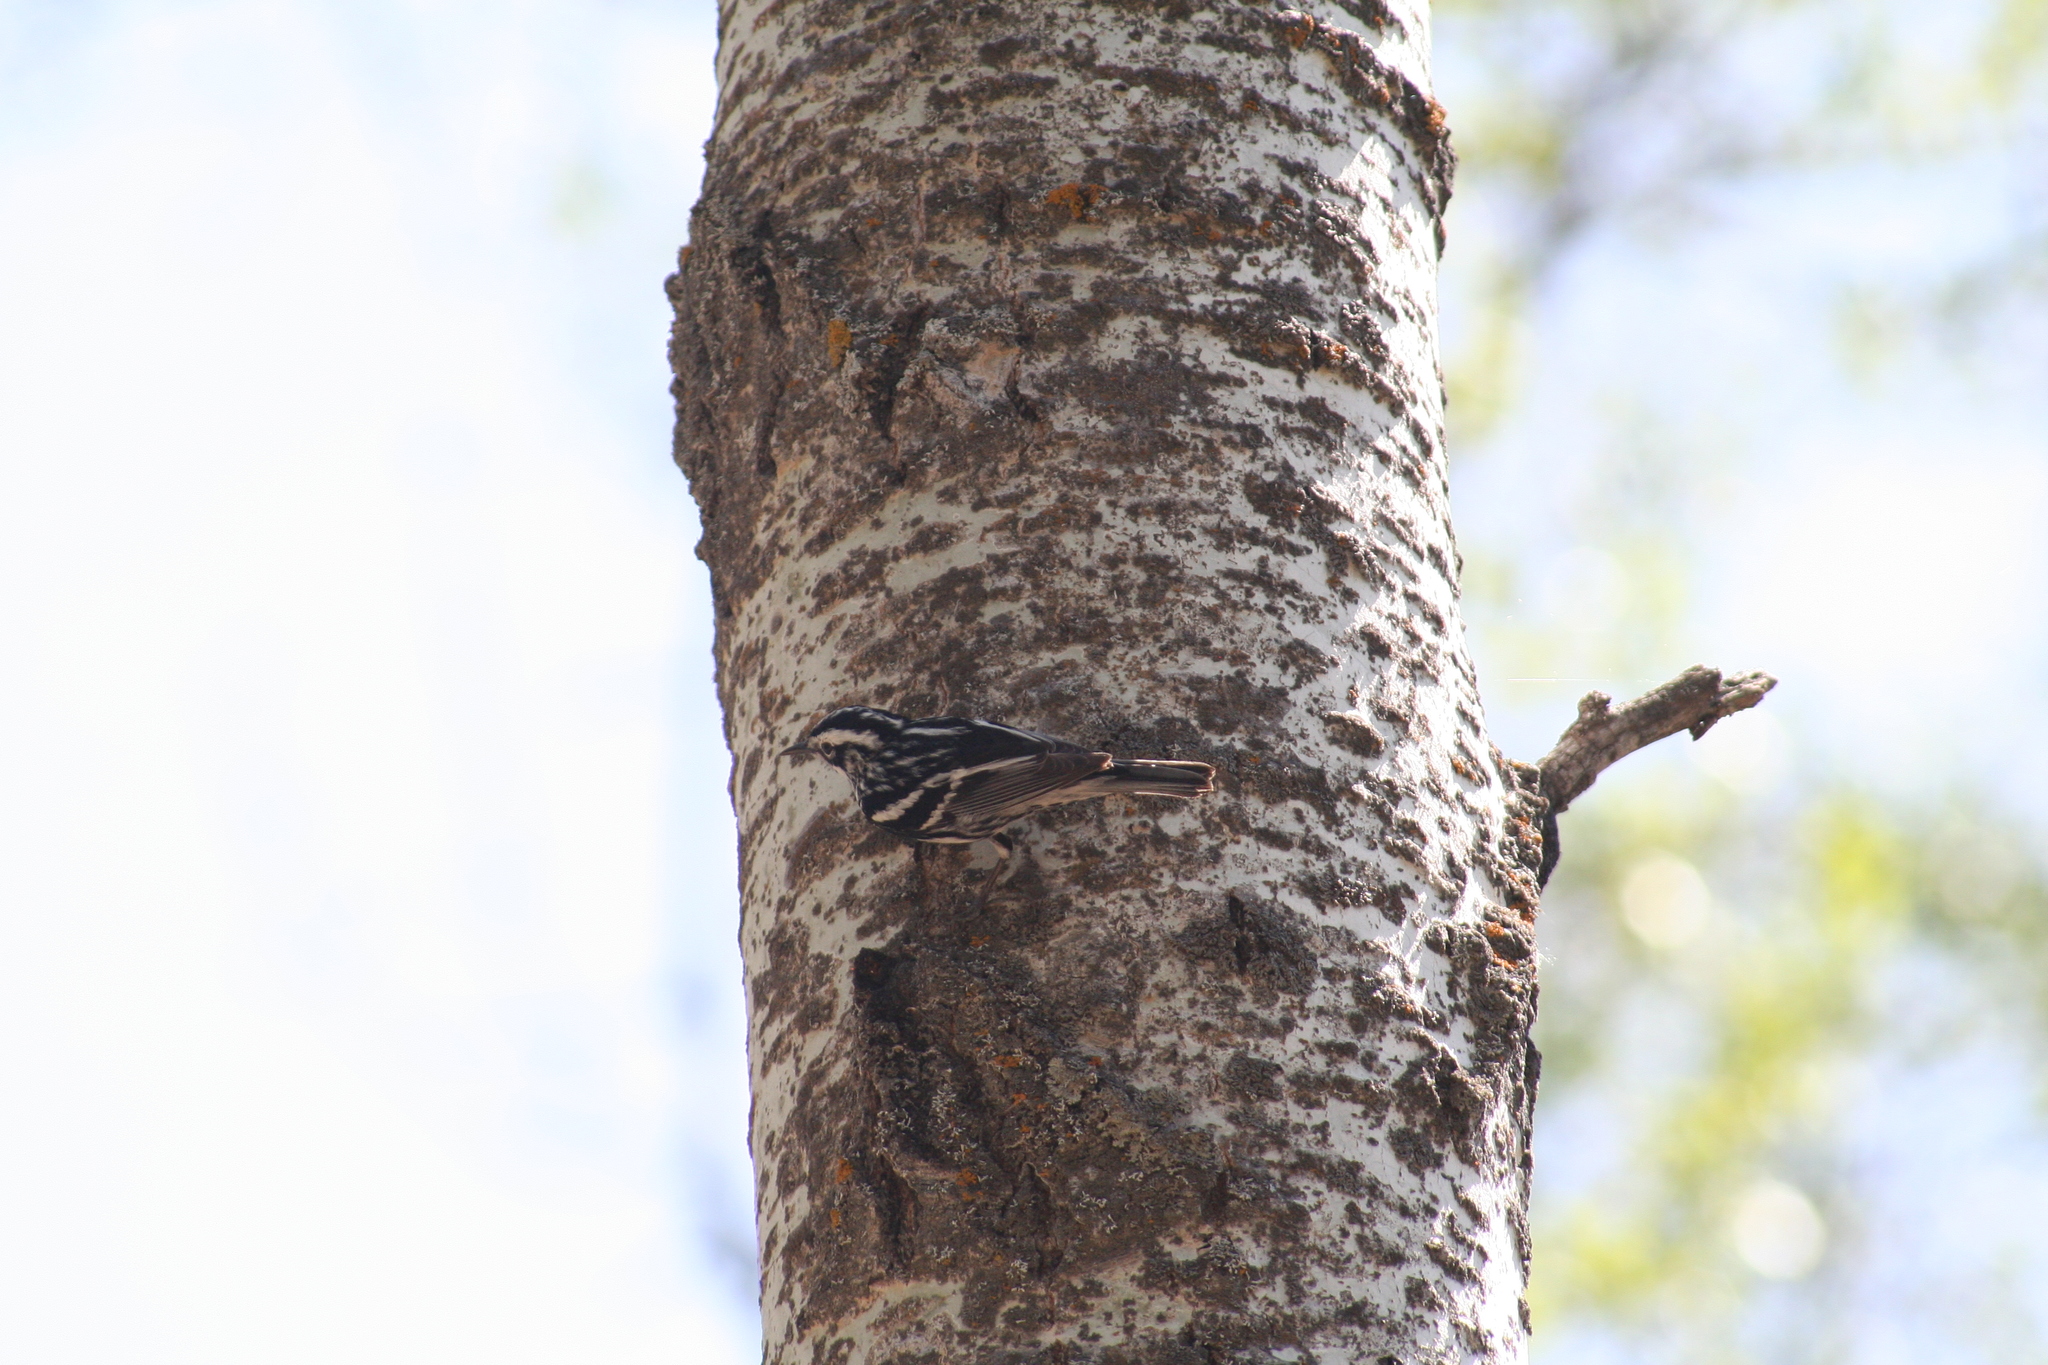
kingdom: Animalia
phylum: Chordata
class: Aves
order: Passeriformes
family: Parulidae
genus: Mniotilta
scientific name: Mniotilta varia
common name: Black-and-white warbler
